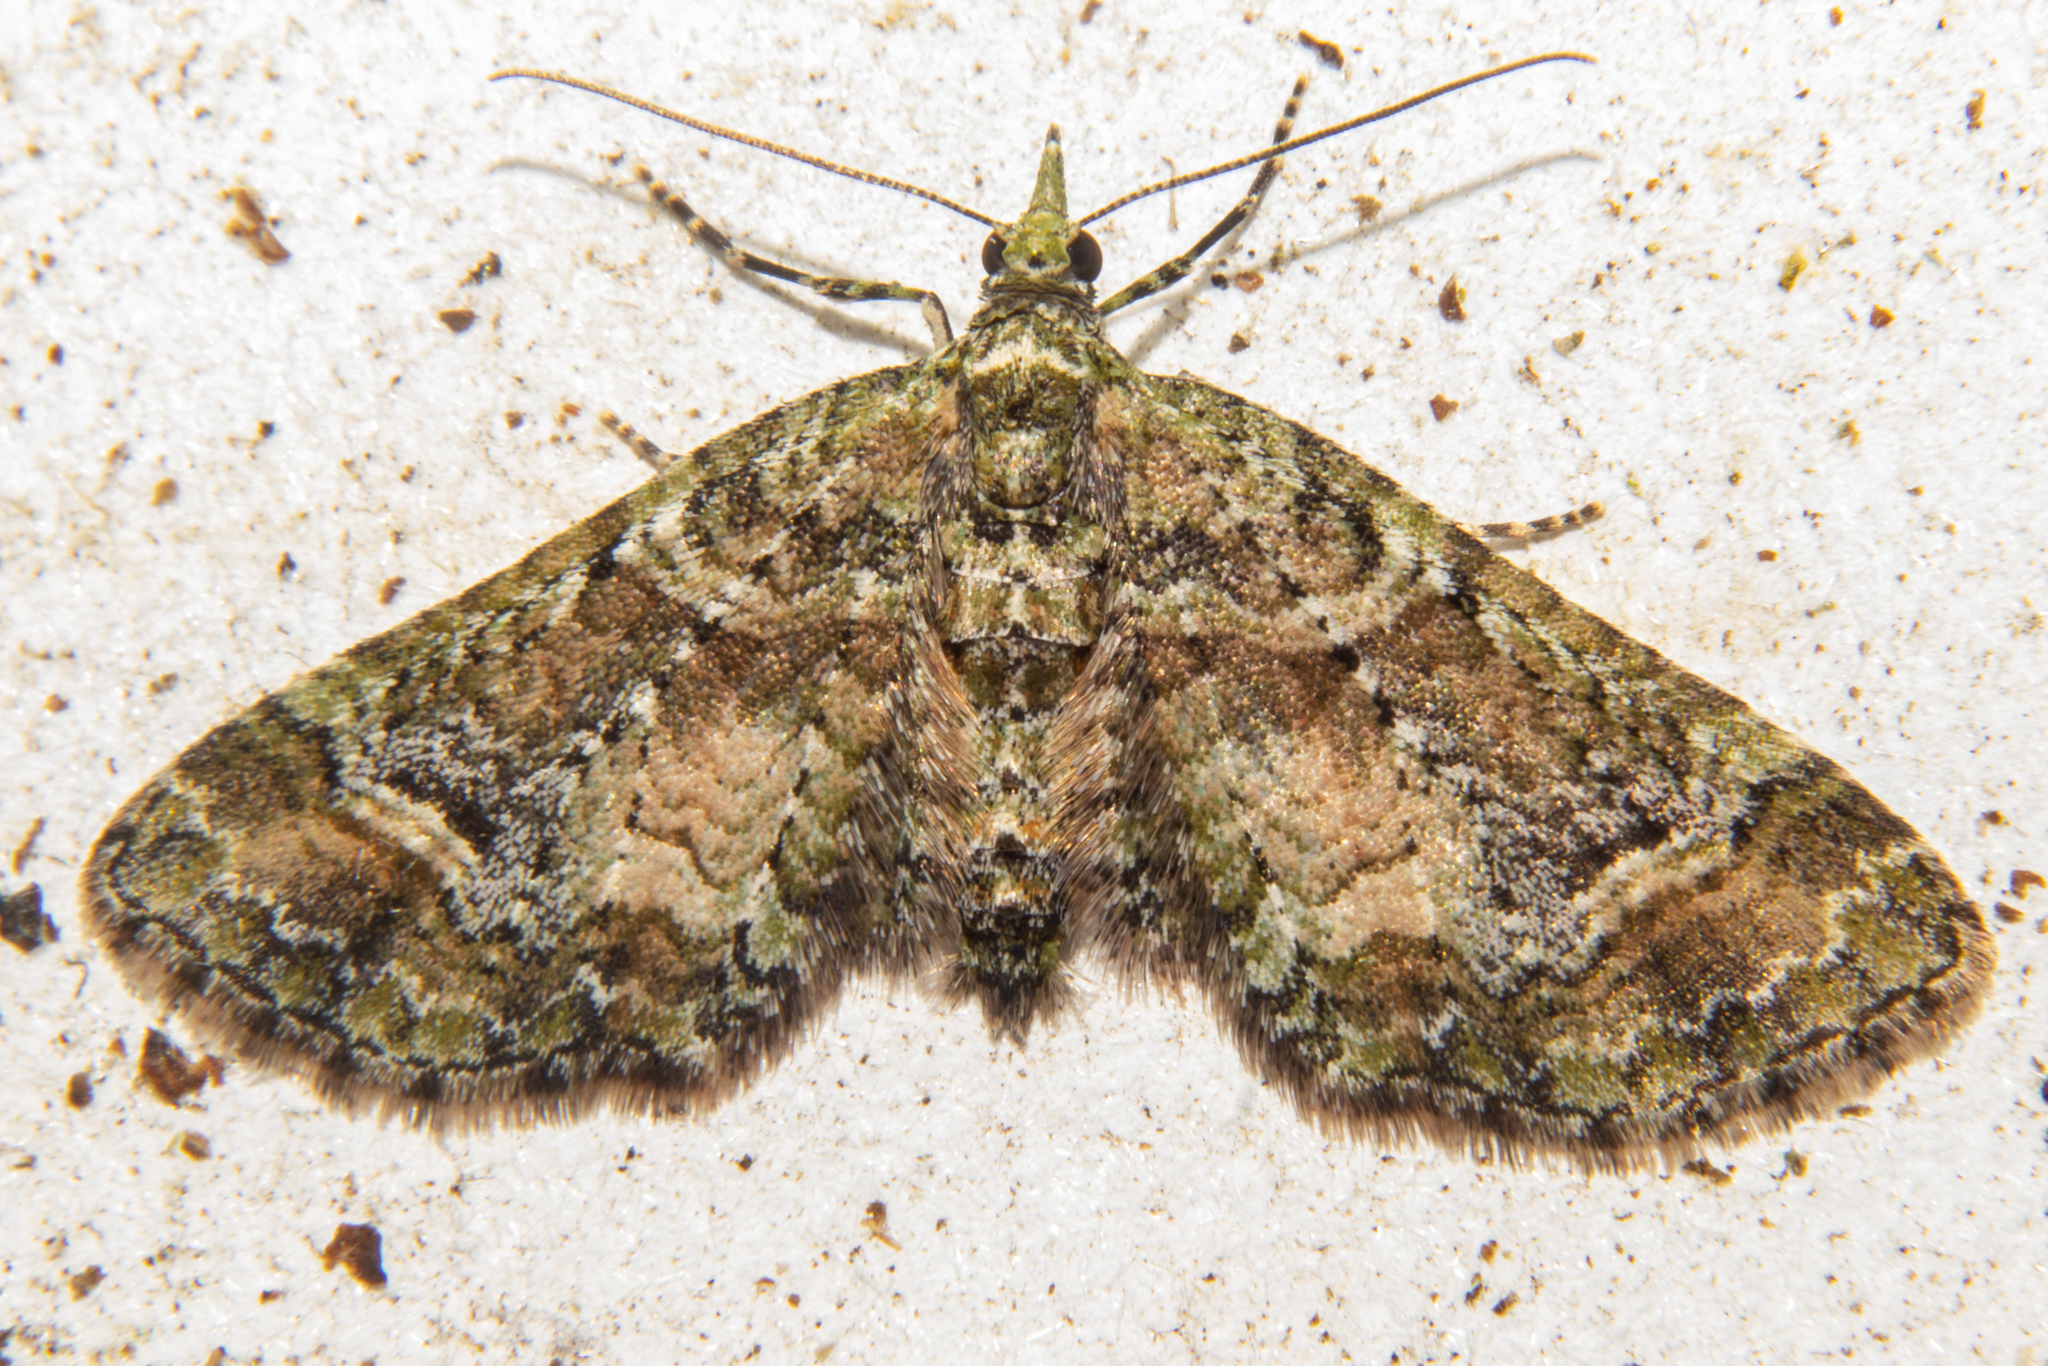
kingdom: Animalia
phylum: Arthropoda
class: Insecta
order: Lepidoptera
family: Geometridae
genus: Idaea
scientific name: Idaea mutanda
